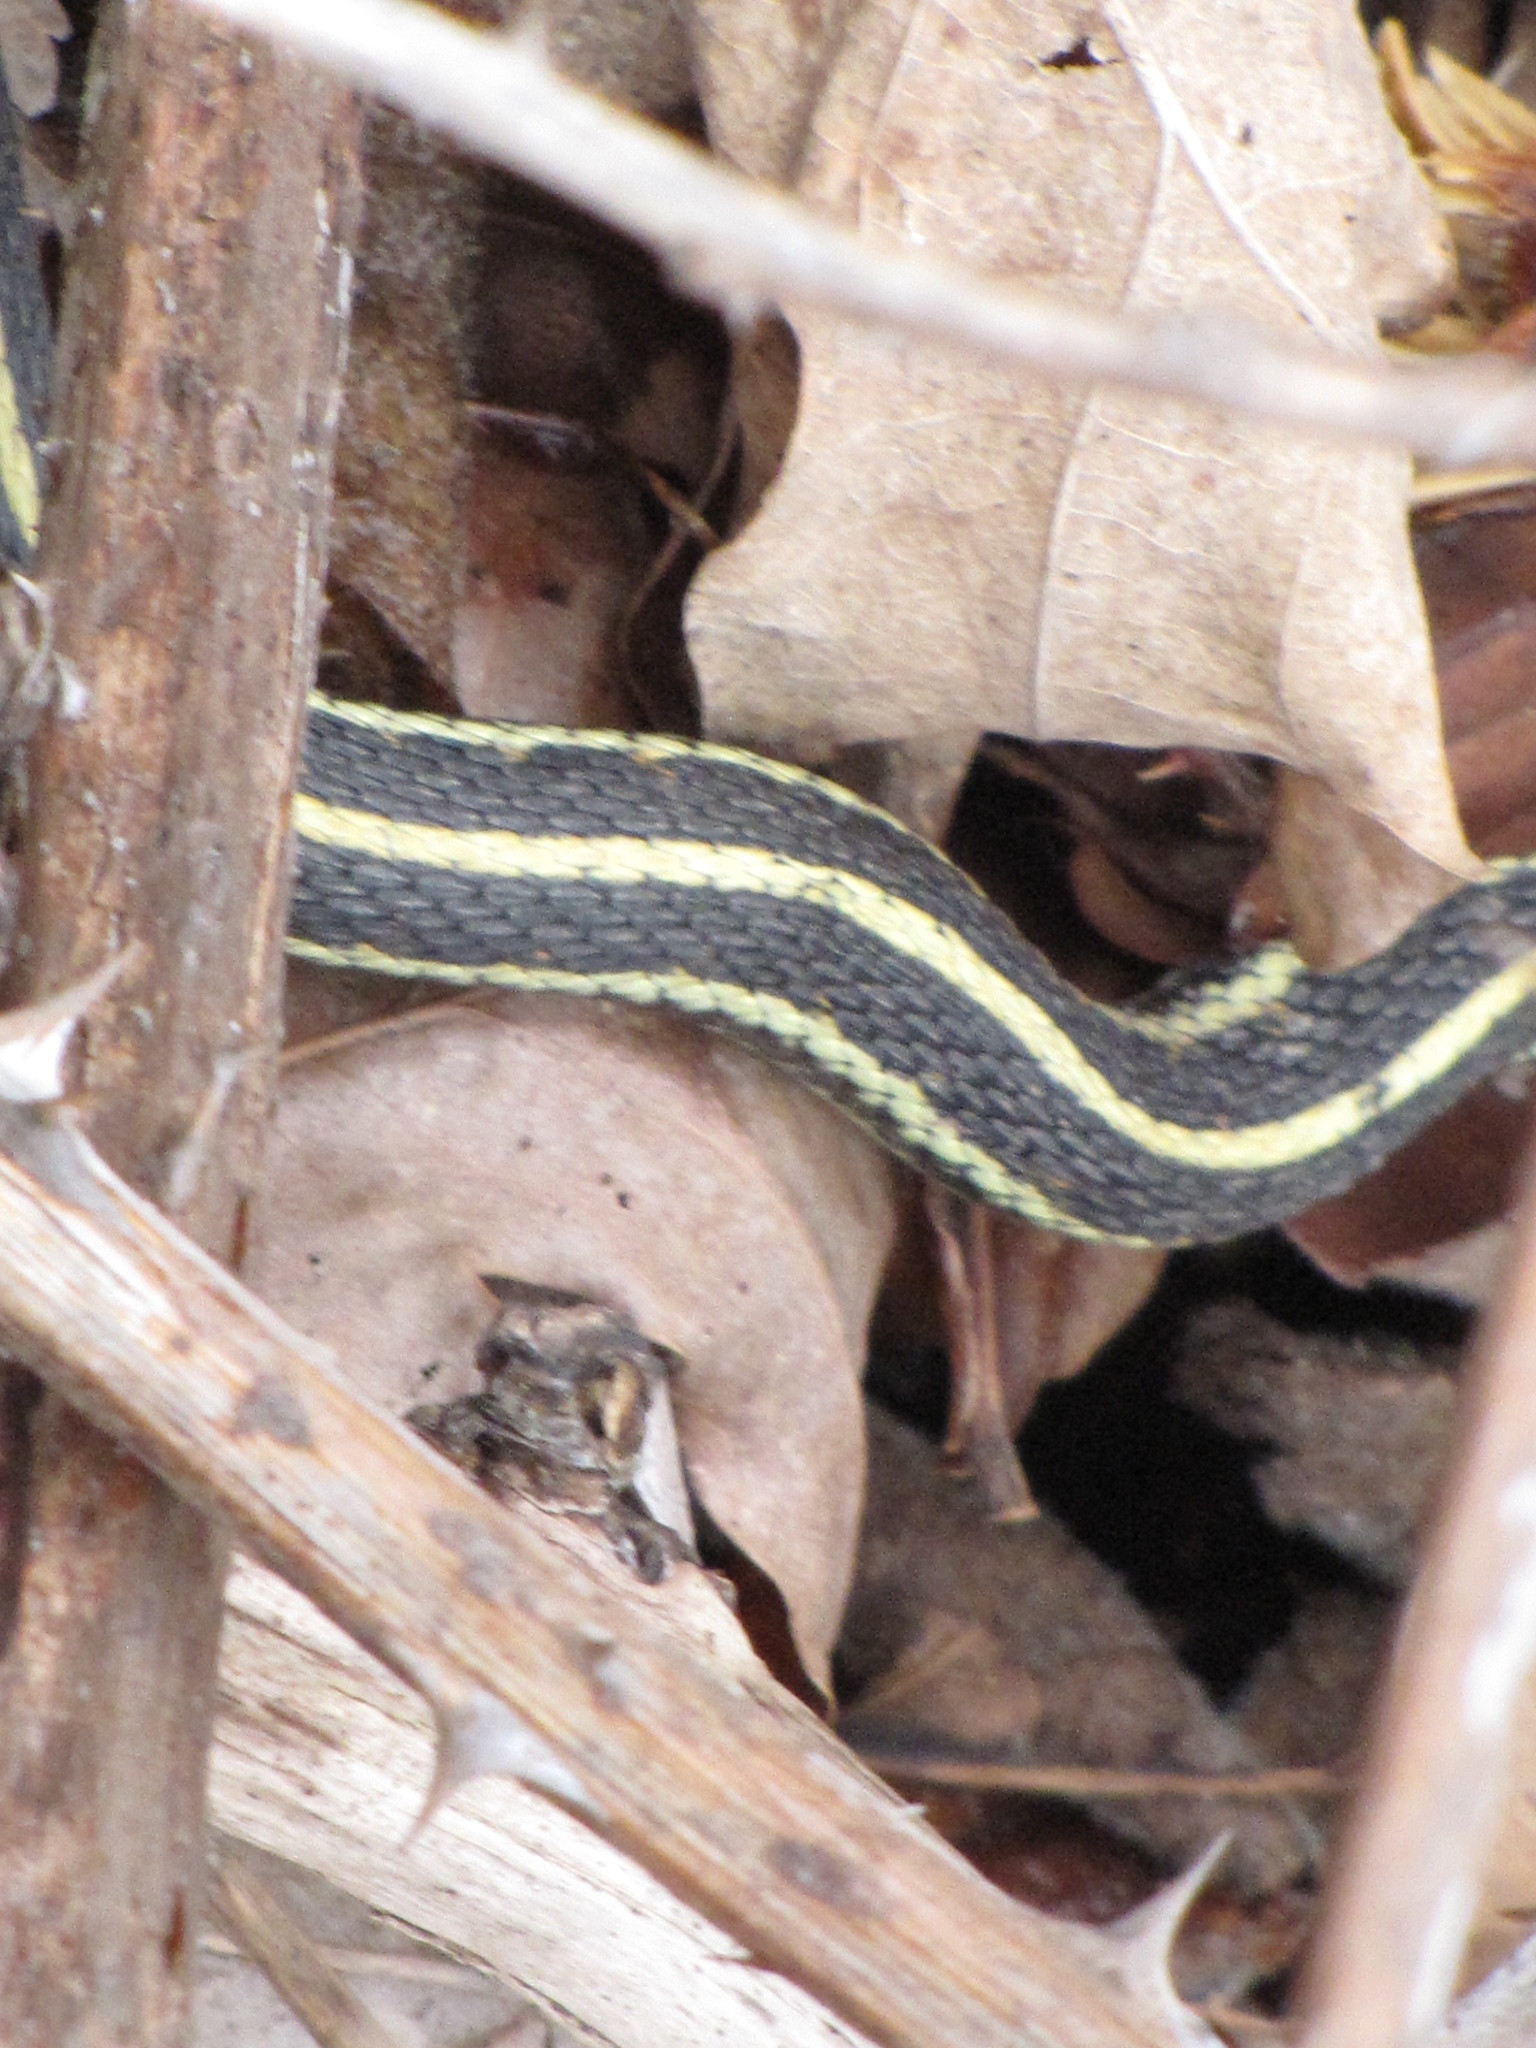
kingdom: Animalia
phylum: Chordata
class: Squamata
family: Colubridae
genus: Thamnophis
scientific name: Thamnophis sirtalis
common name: Common garter snake
